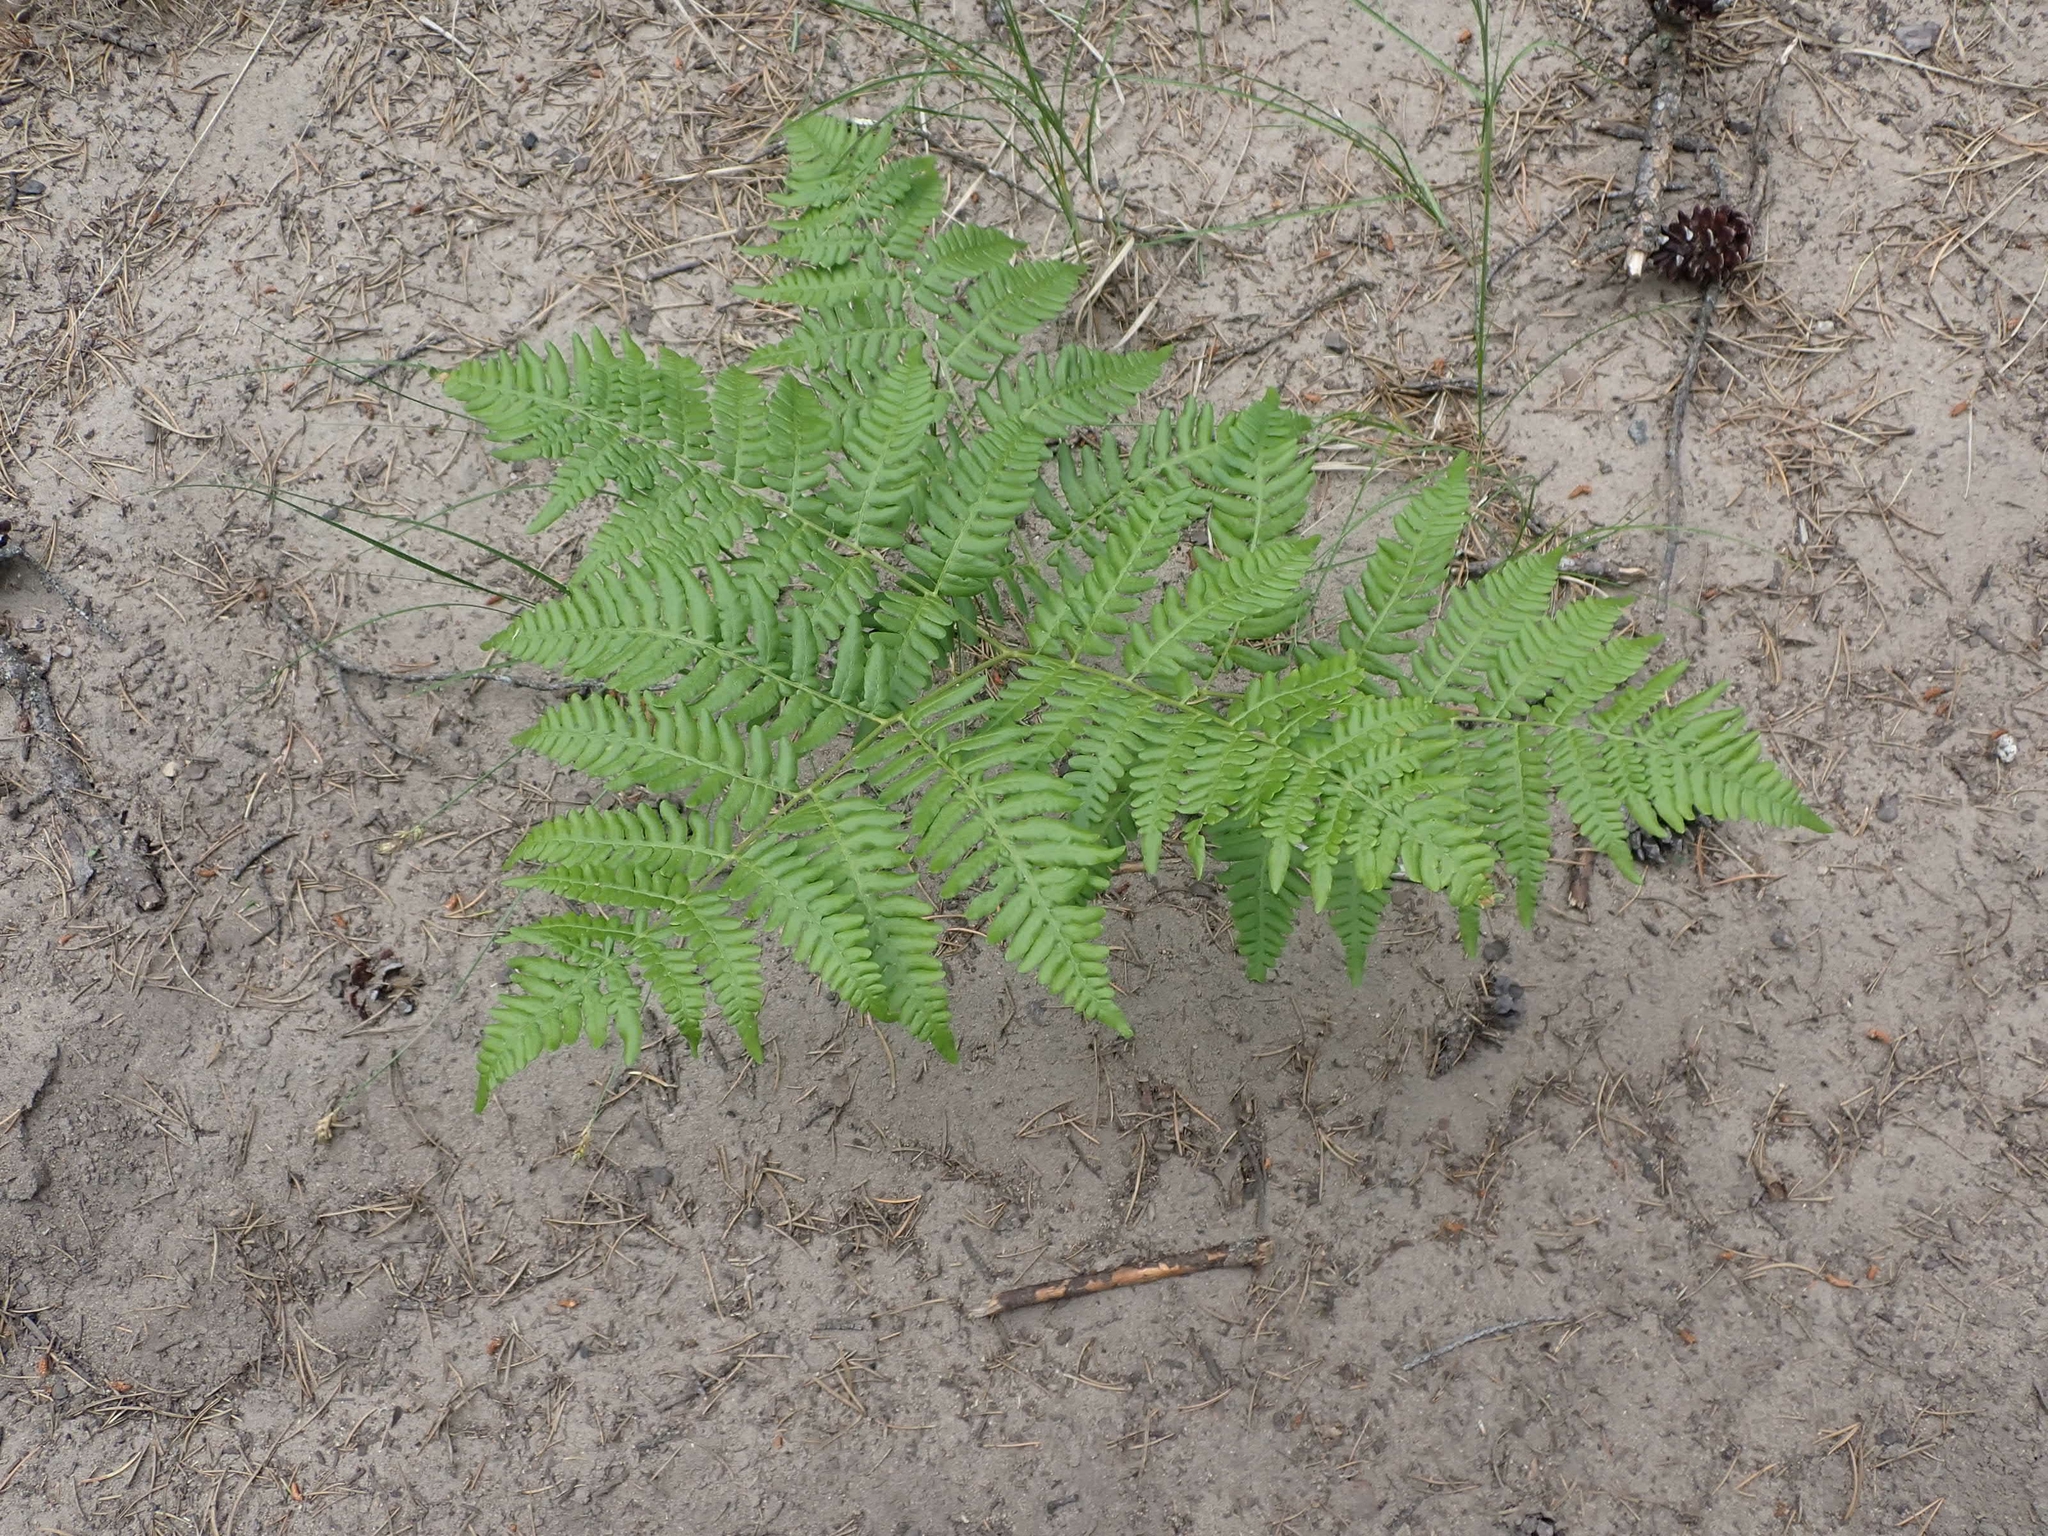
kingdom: Plantae
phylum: Tracheophyta
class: Polypodiopsida
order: Polypodiales
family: Dennstaedtiaceae
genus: Pteridium
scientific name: Pteridium aquilinum
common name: Bracken
